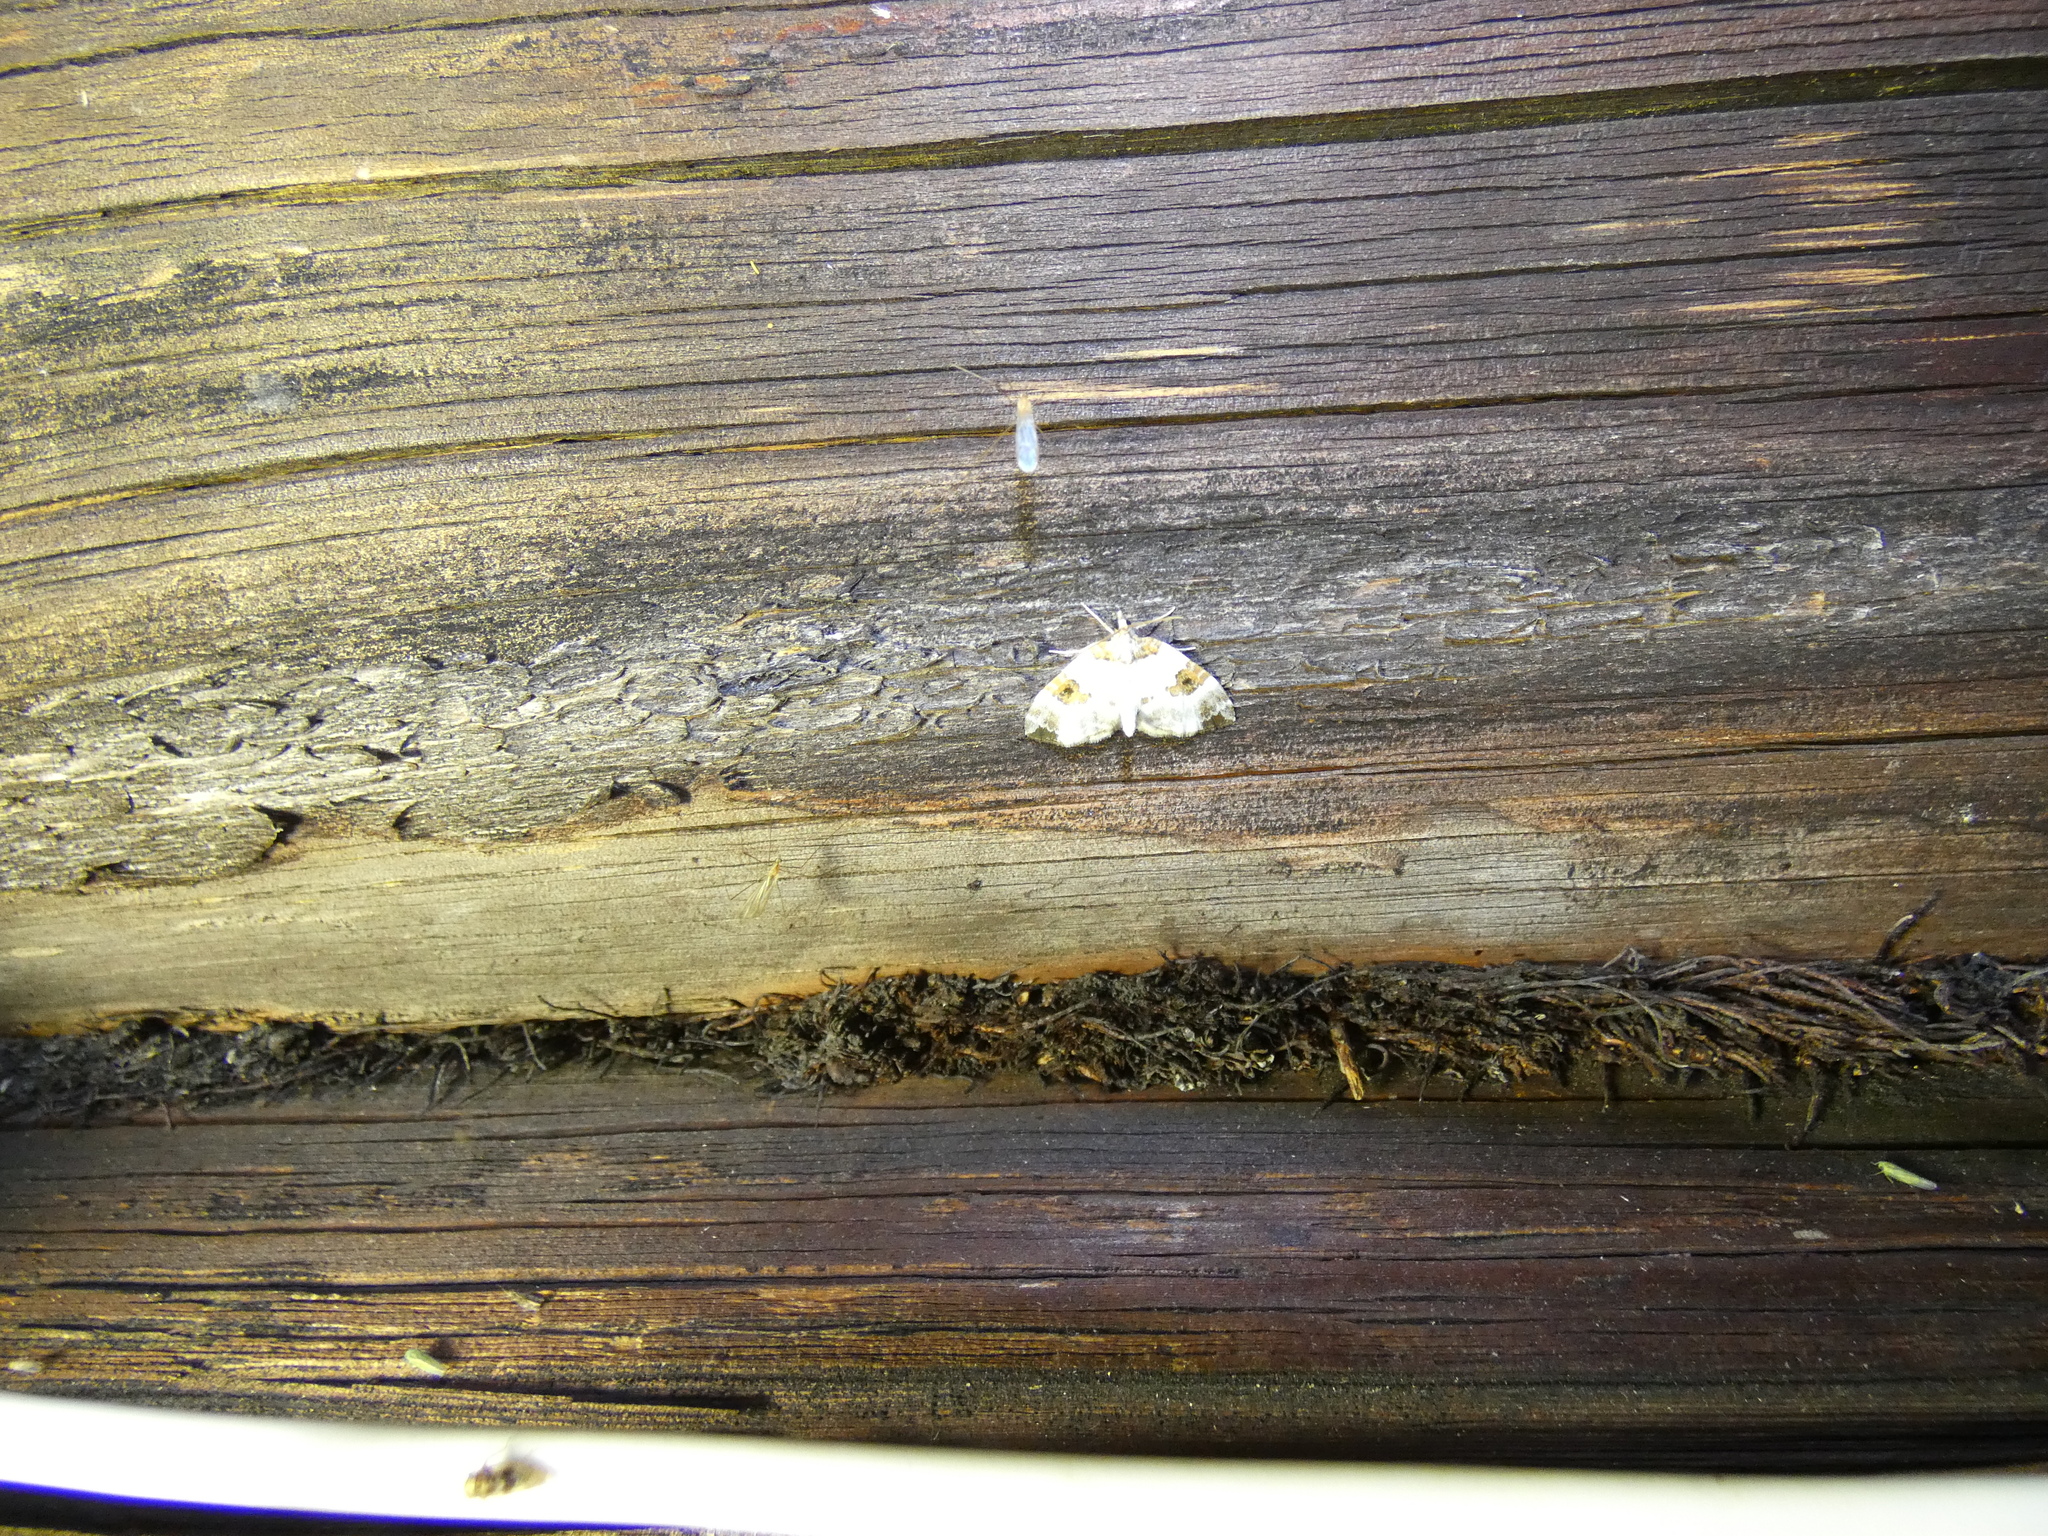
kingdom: Animalia
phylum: Arthropoda
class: Insecta
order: Lepidoptera
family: Geometridae
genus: Plemyria
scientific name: Plemyria rubiginata
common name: Blue-bordered carpet
